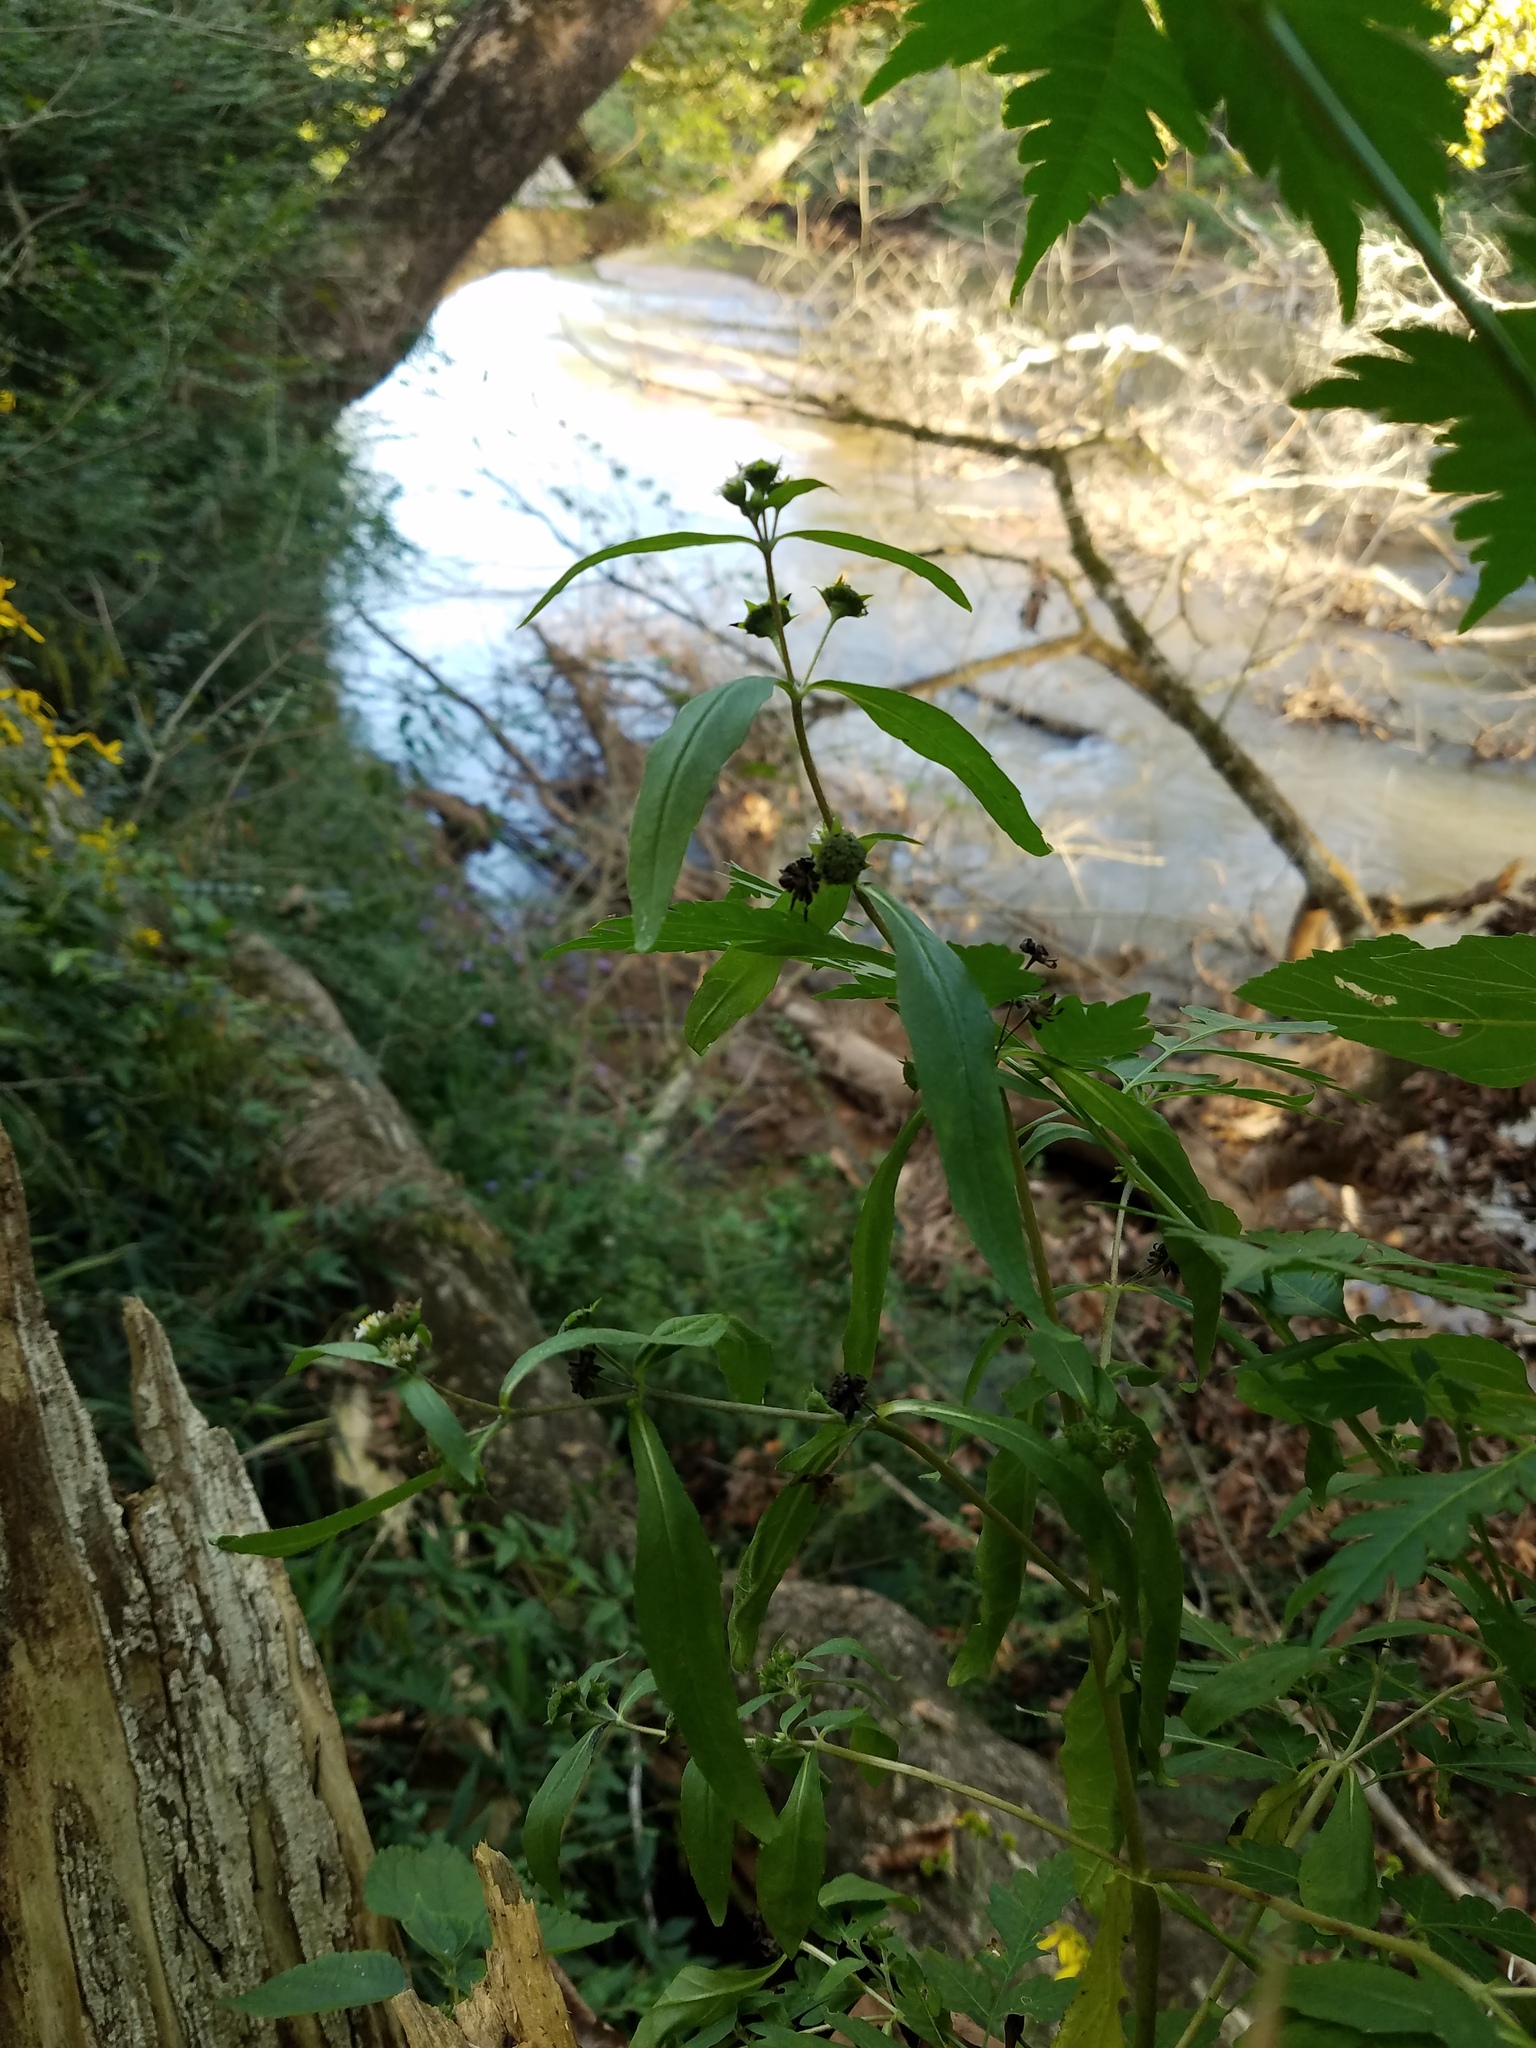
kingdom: Plantae
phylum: Tracheophyta
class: Magnoliopsida
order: Asterales
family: Asteraceae
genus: Eclipta
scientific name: Eclipta prostrata
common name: False daisy
